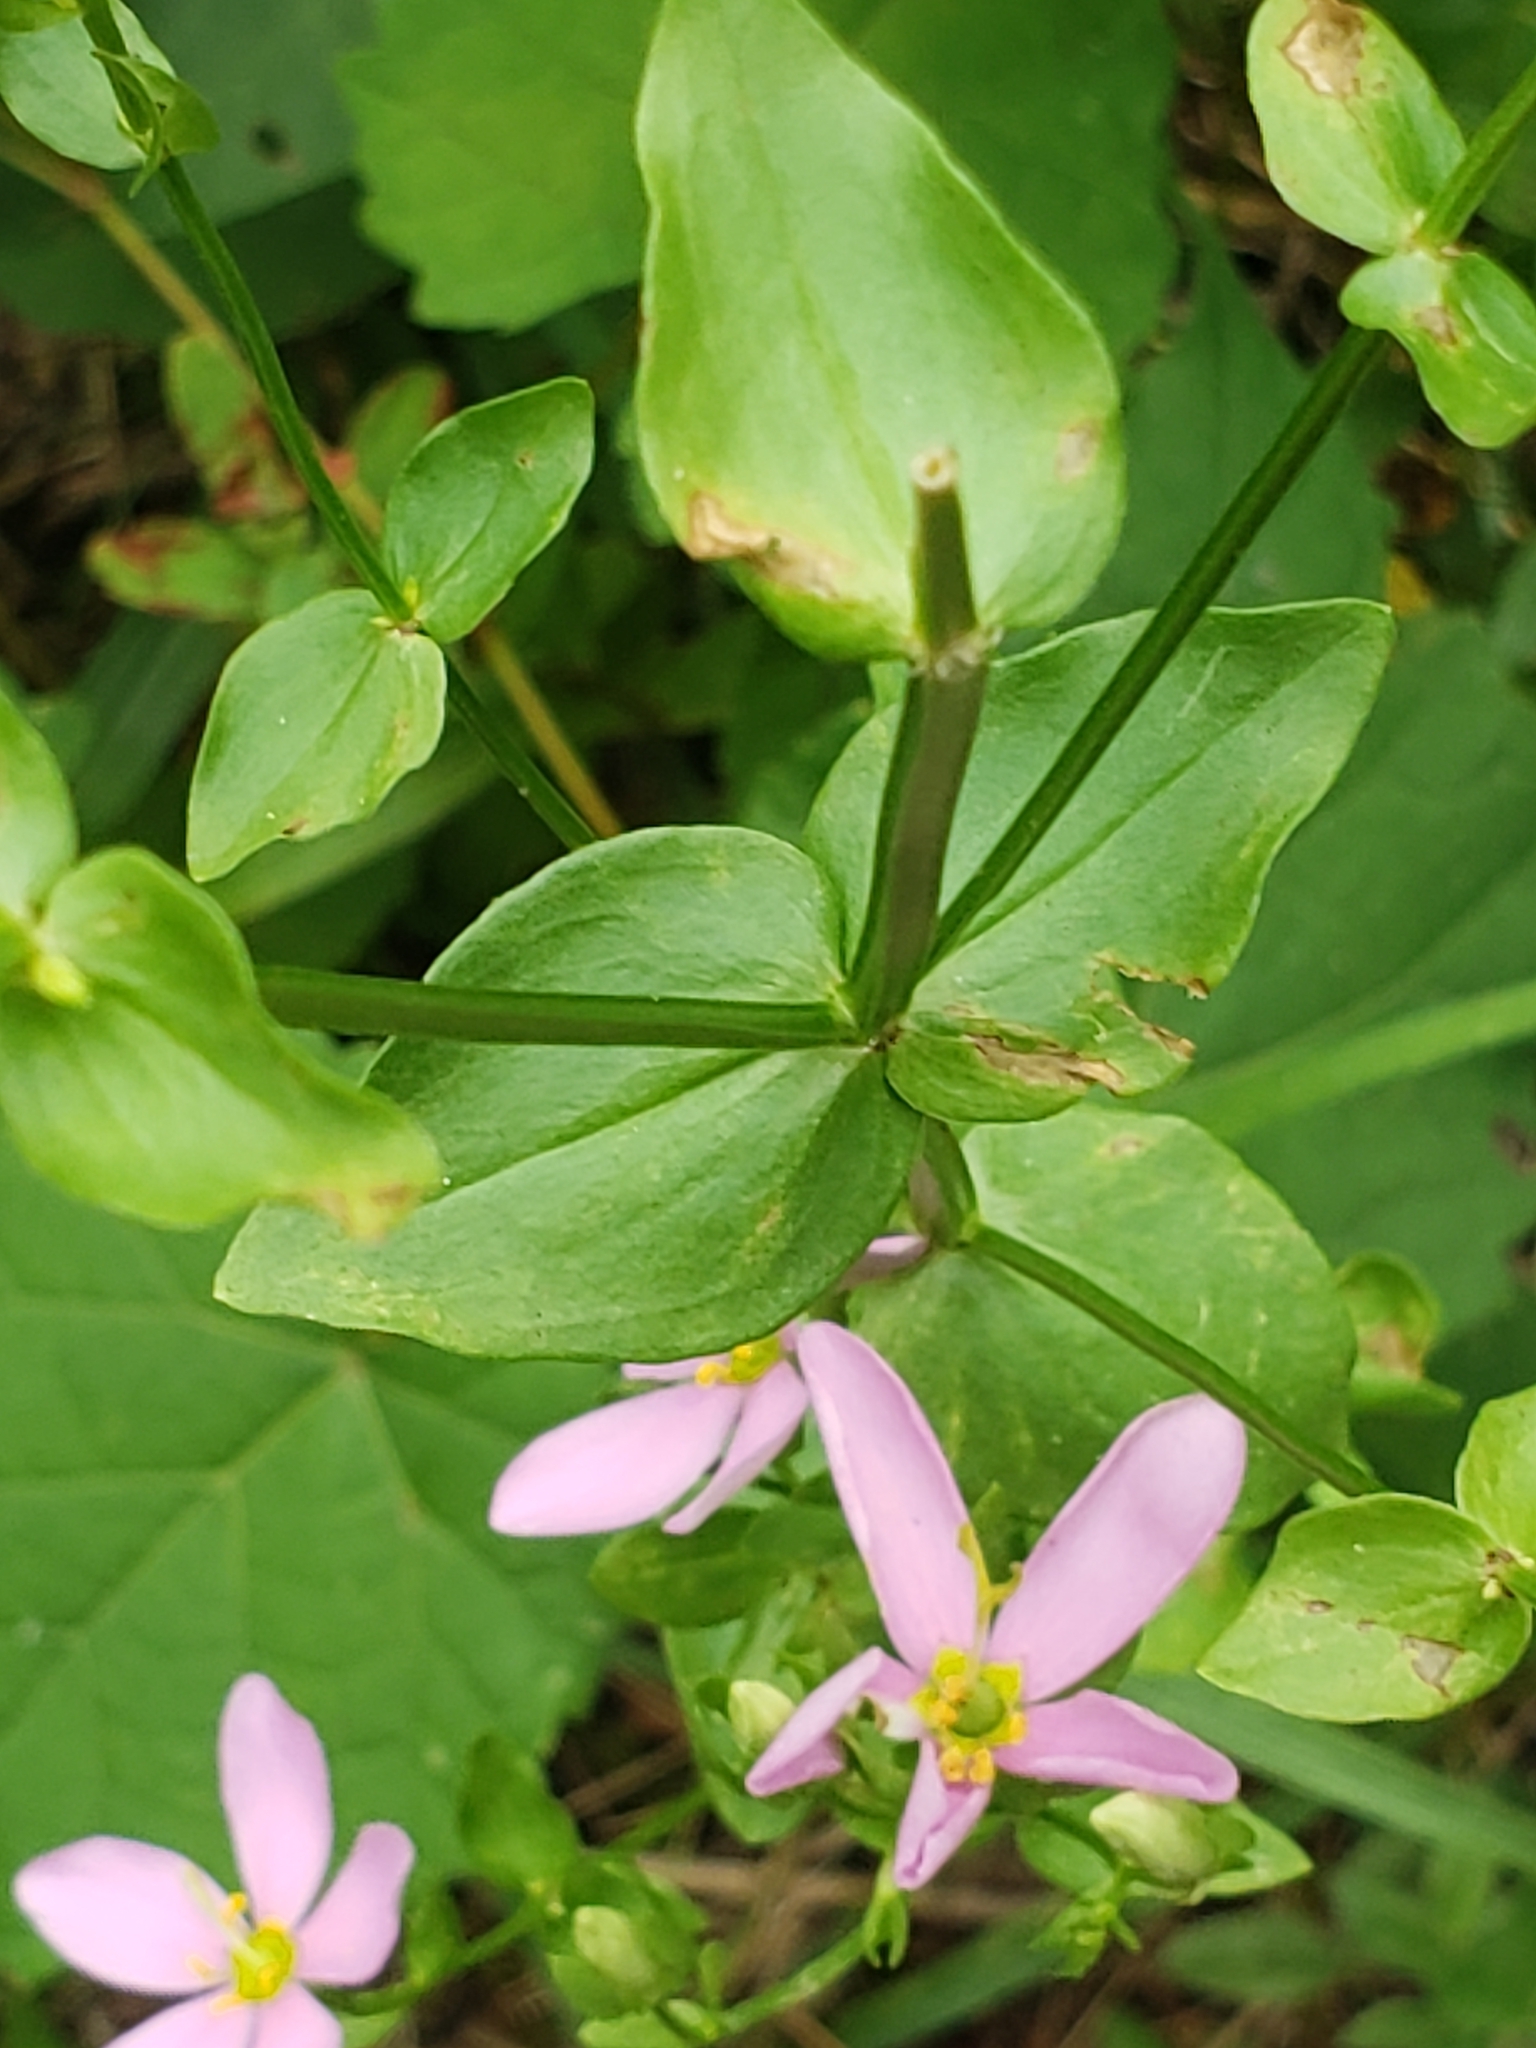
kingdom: Plantae
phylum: Tracheophyta
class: Magnoliopsida
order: Gentianales
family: Gentianaceae
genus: Sabatia
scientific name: Sabatia angularis
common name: Rose-pink
